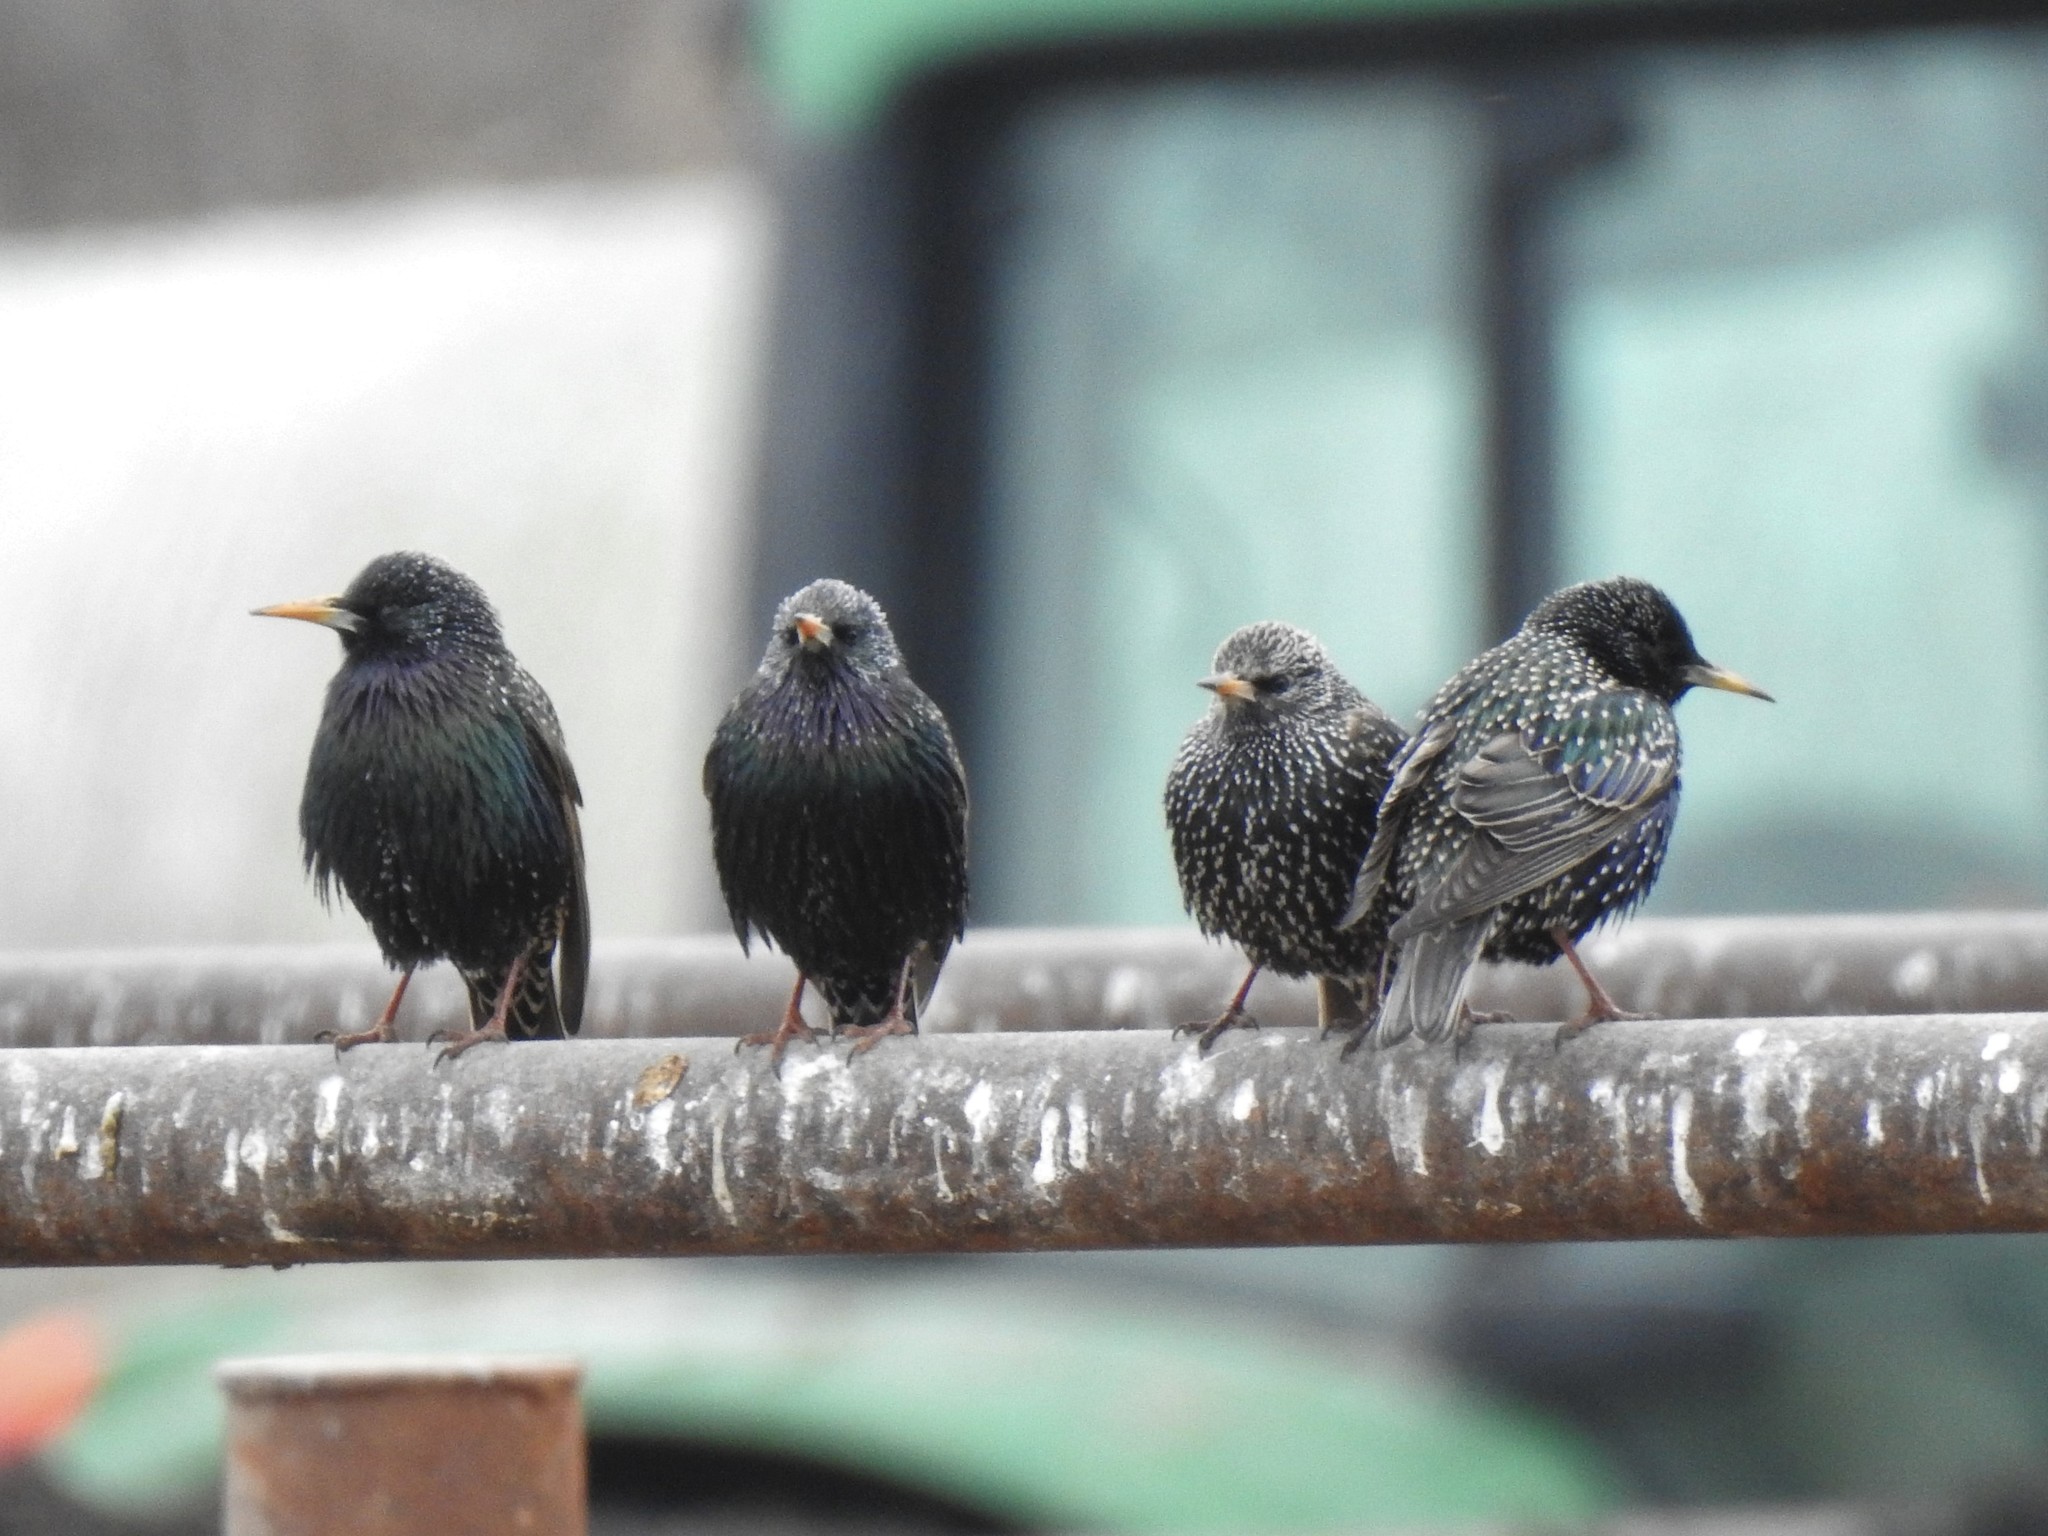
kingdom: Animalia
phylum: Chordata
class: Aves
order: Passeriformes
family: Sturnidae
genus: Sturnus
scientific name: Sturnus vulgaris
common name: Common starling
